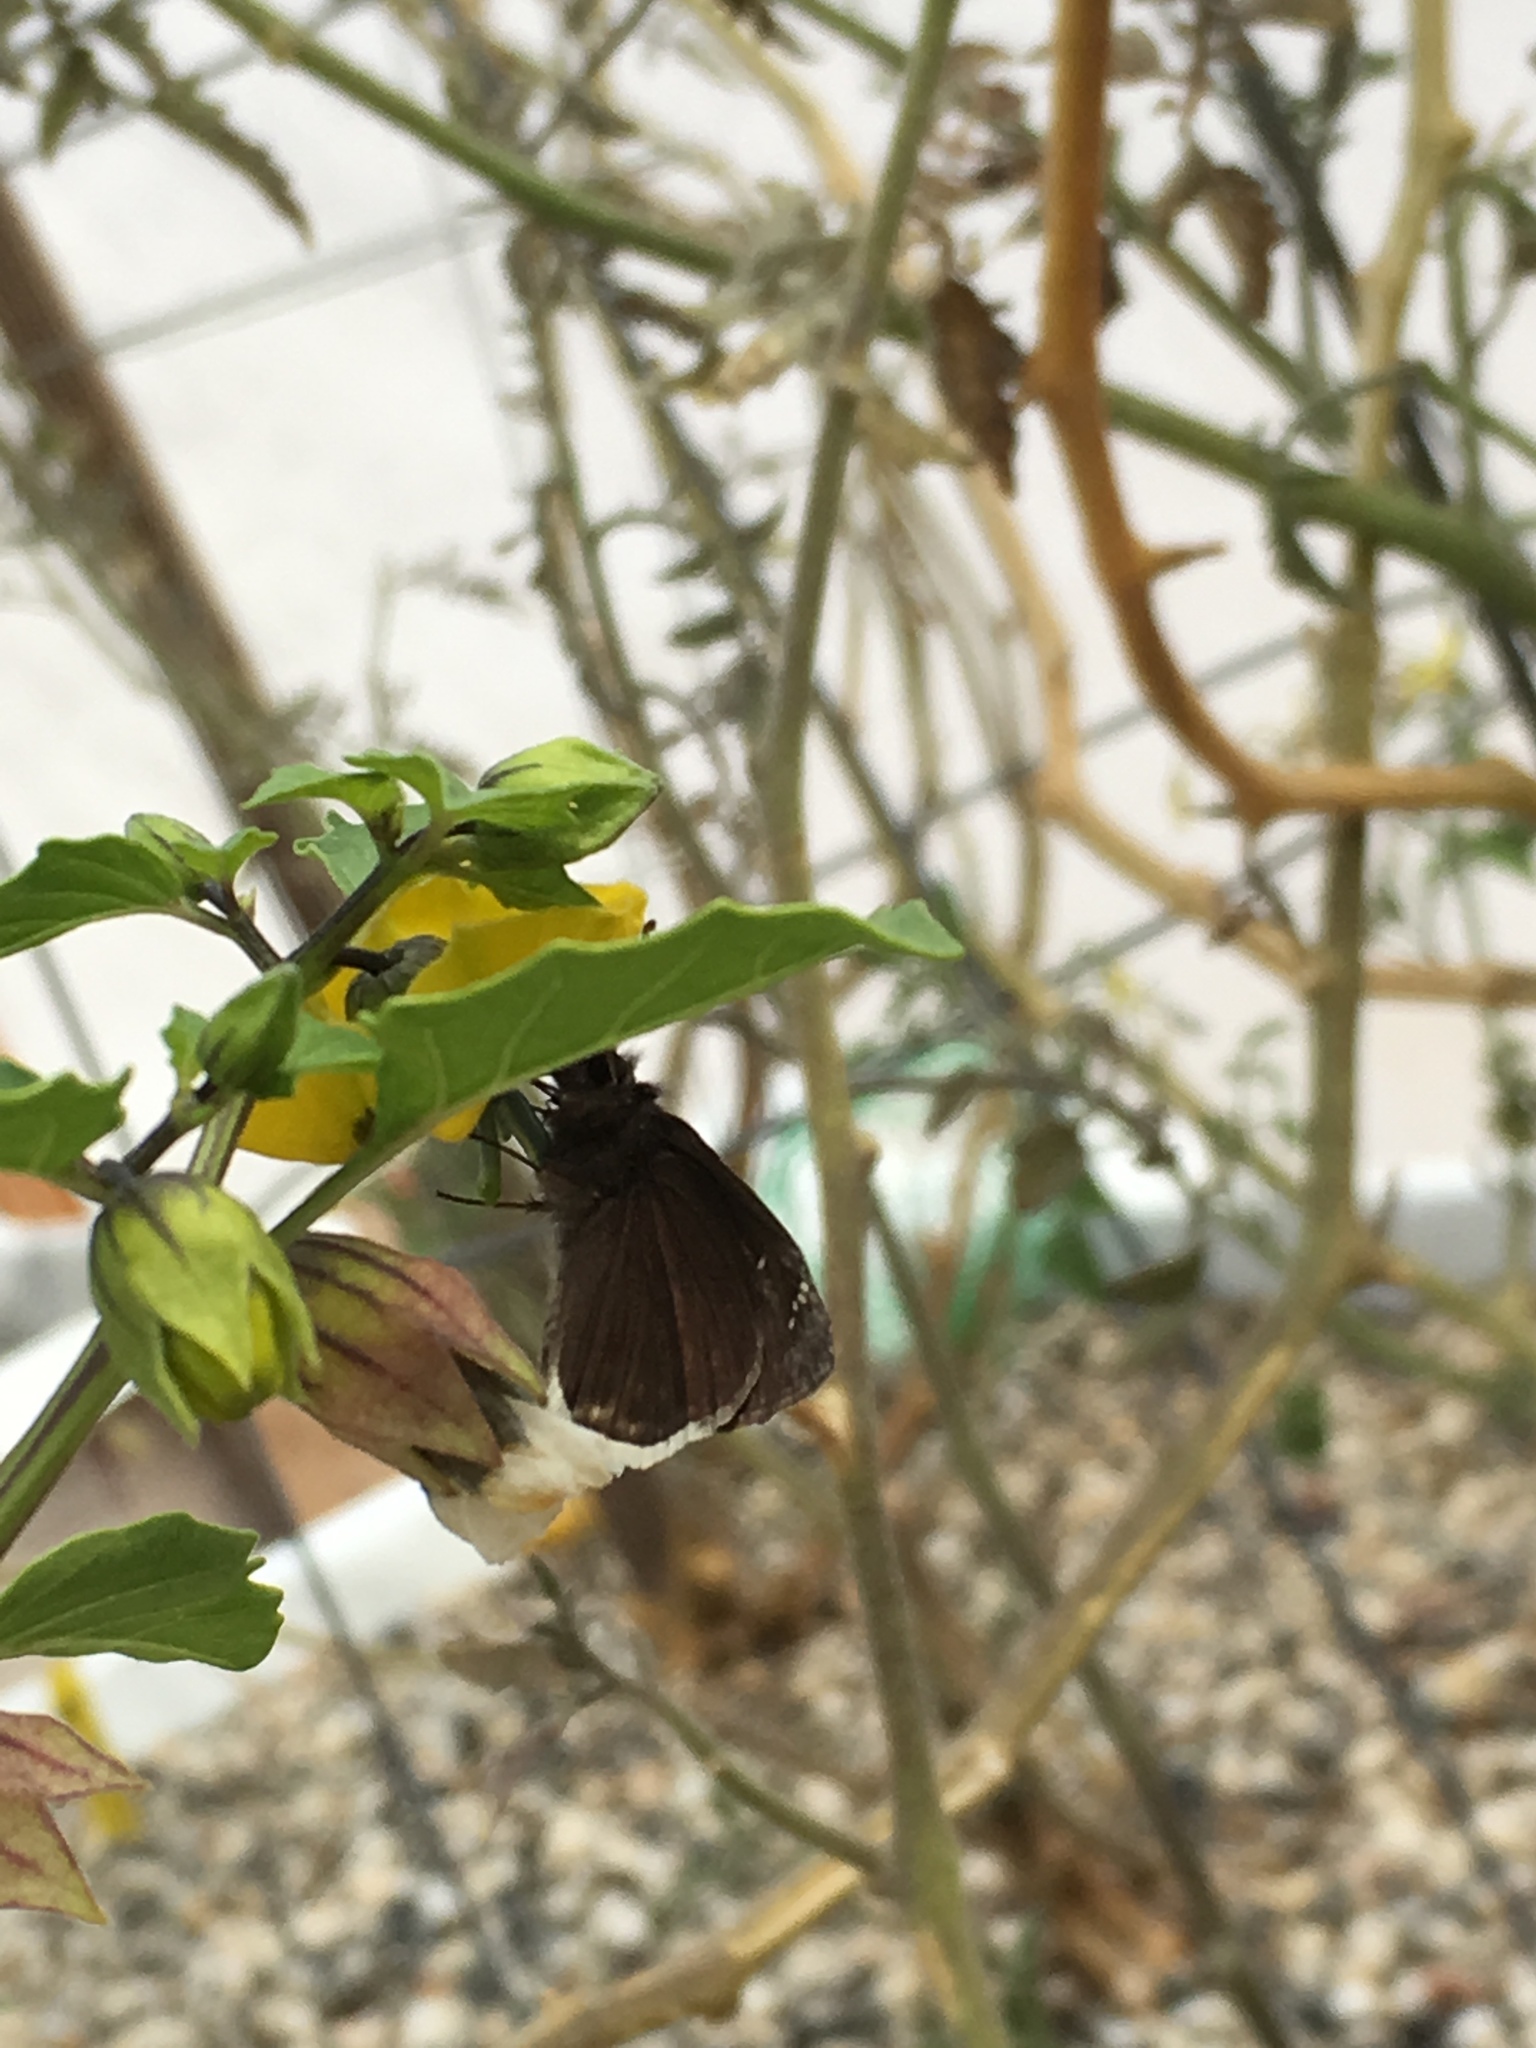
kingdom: Animalia
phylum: Arthropoda
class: Insecta
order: Lepidoptera
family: Hesperiidae
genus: Erynnis
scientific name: Erynnis funeralis
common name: Funereal duskywing
